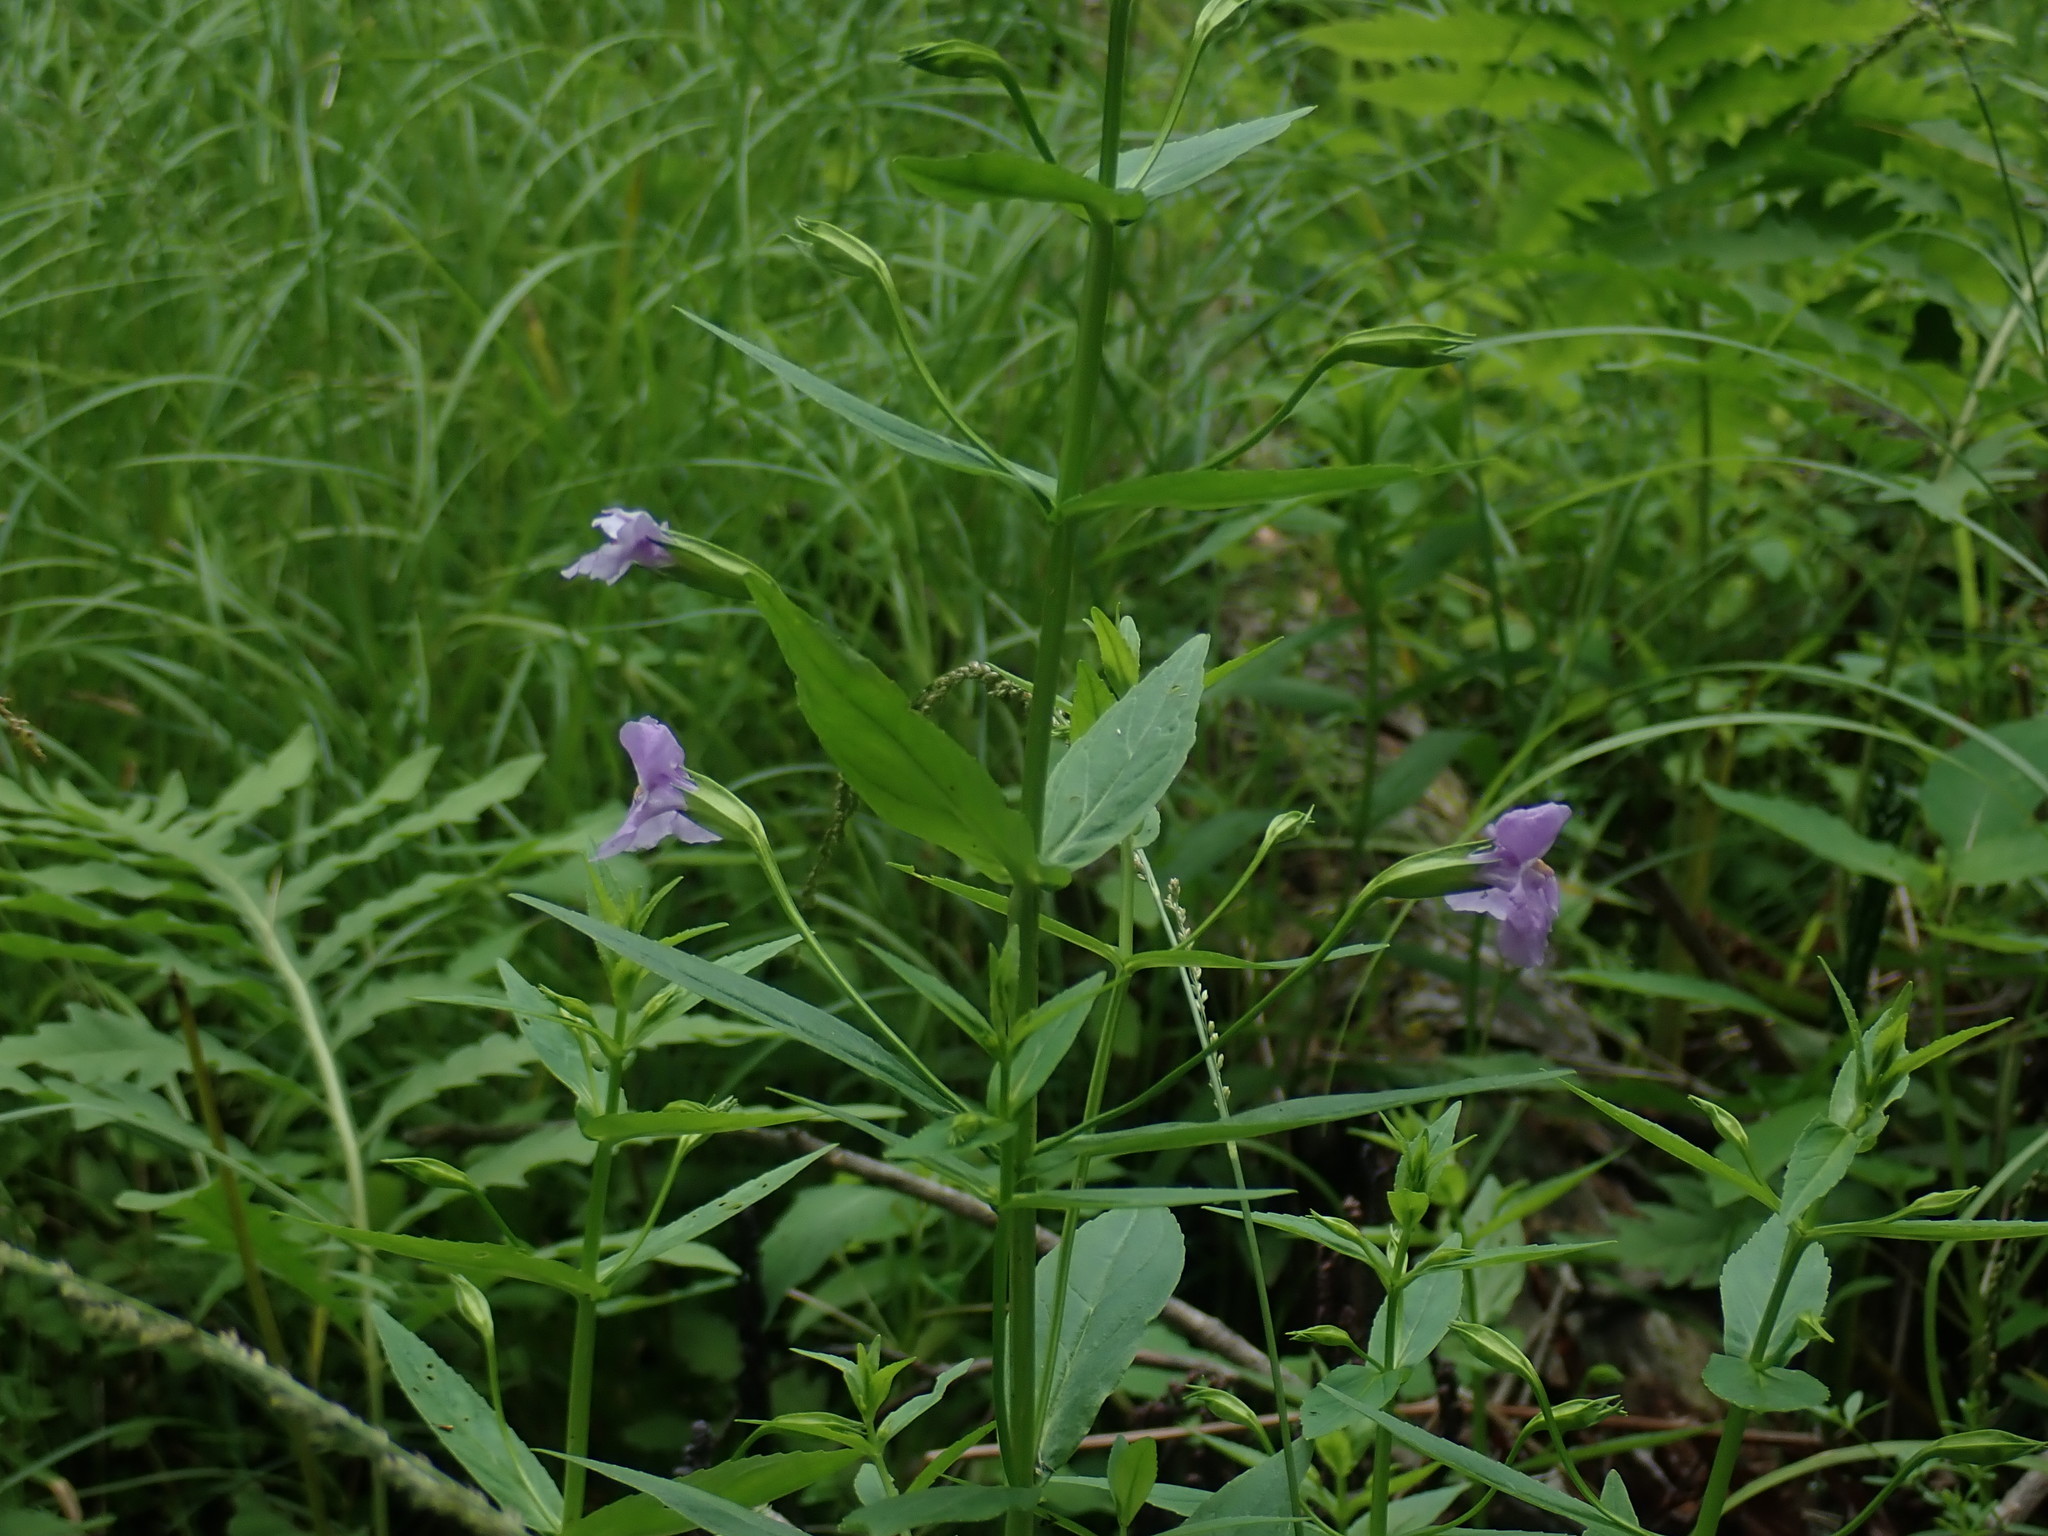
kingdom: Plantae
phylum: Tracheophyta
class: Magnoliopsida
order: Lamiales
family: Phrymaceae
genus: Mimulus
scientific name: Mimulus ringens
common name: Allegheny monkeyflower
